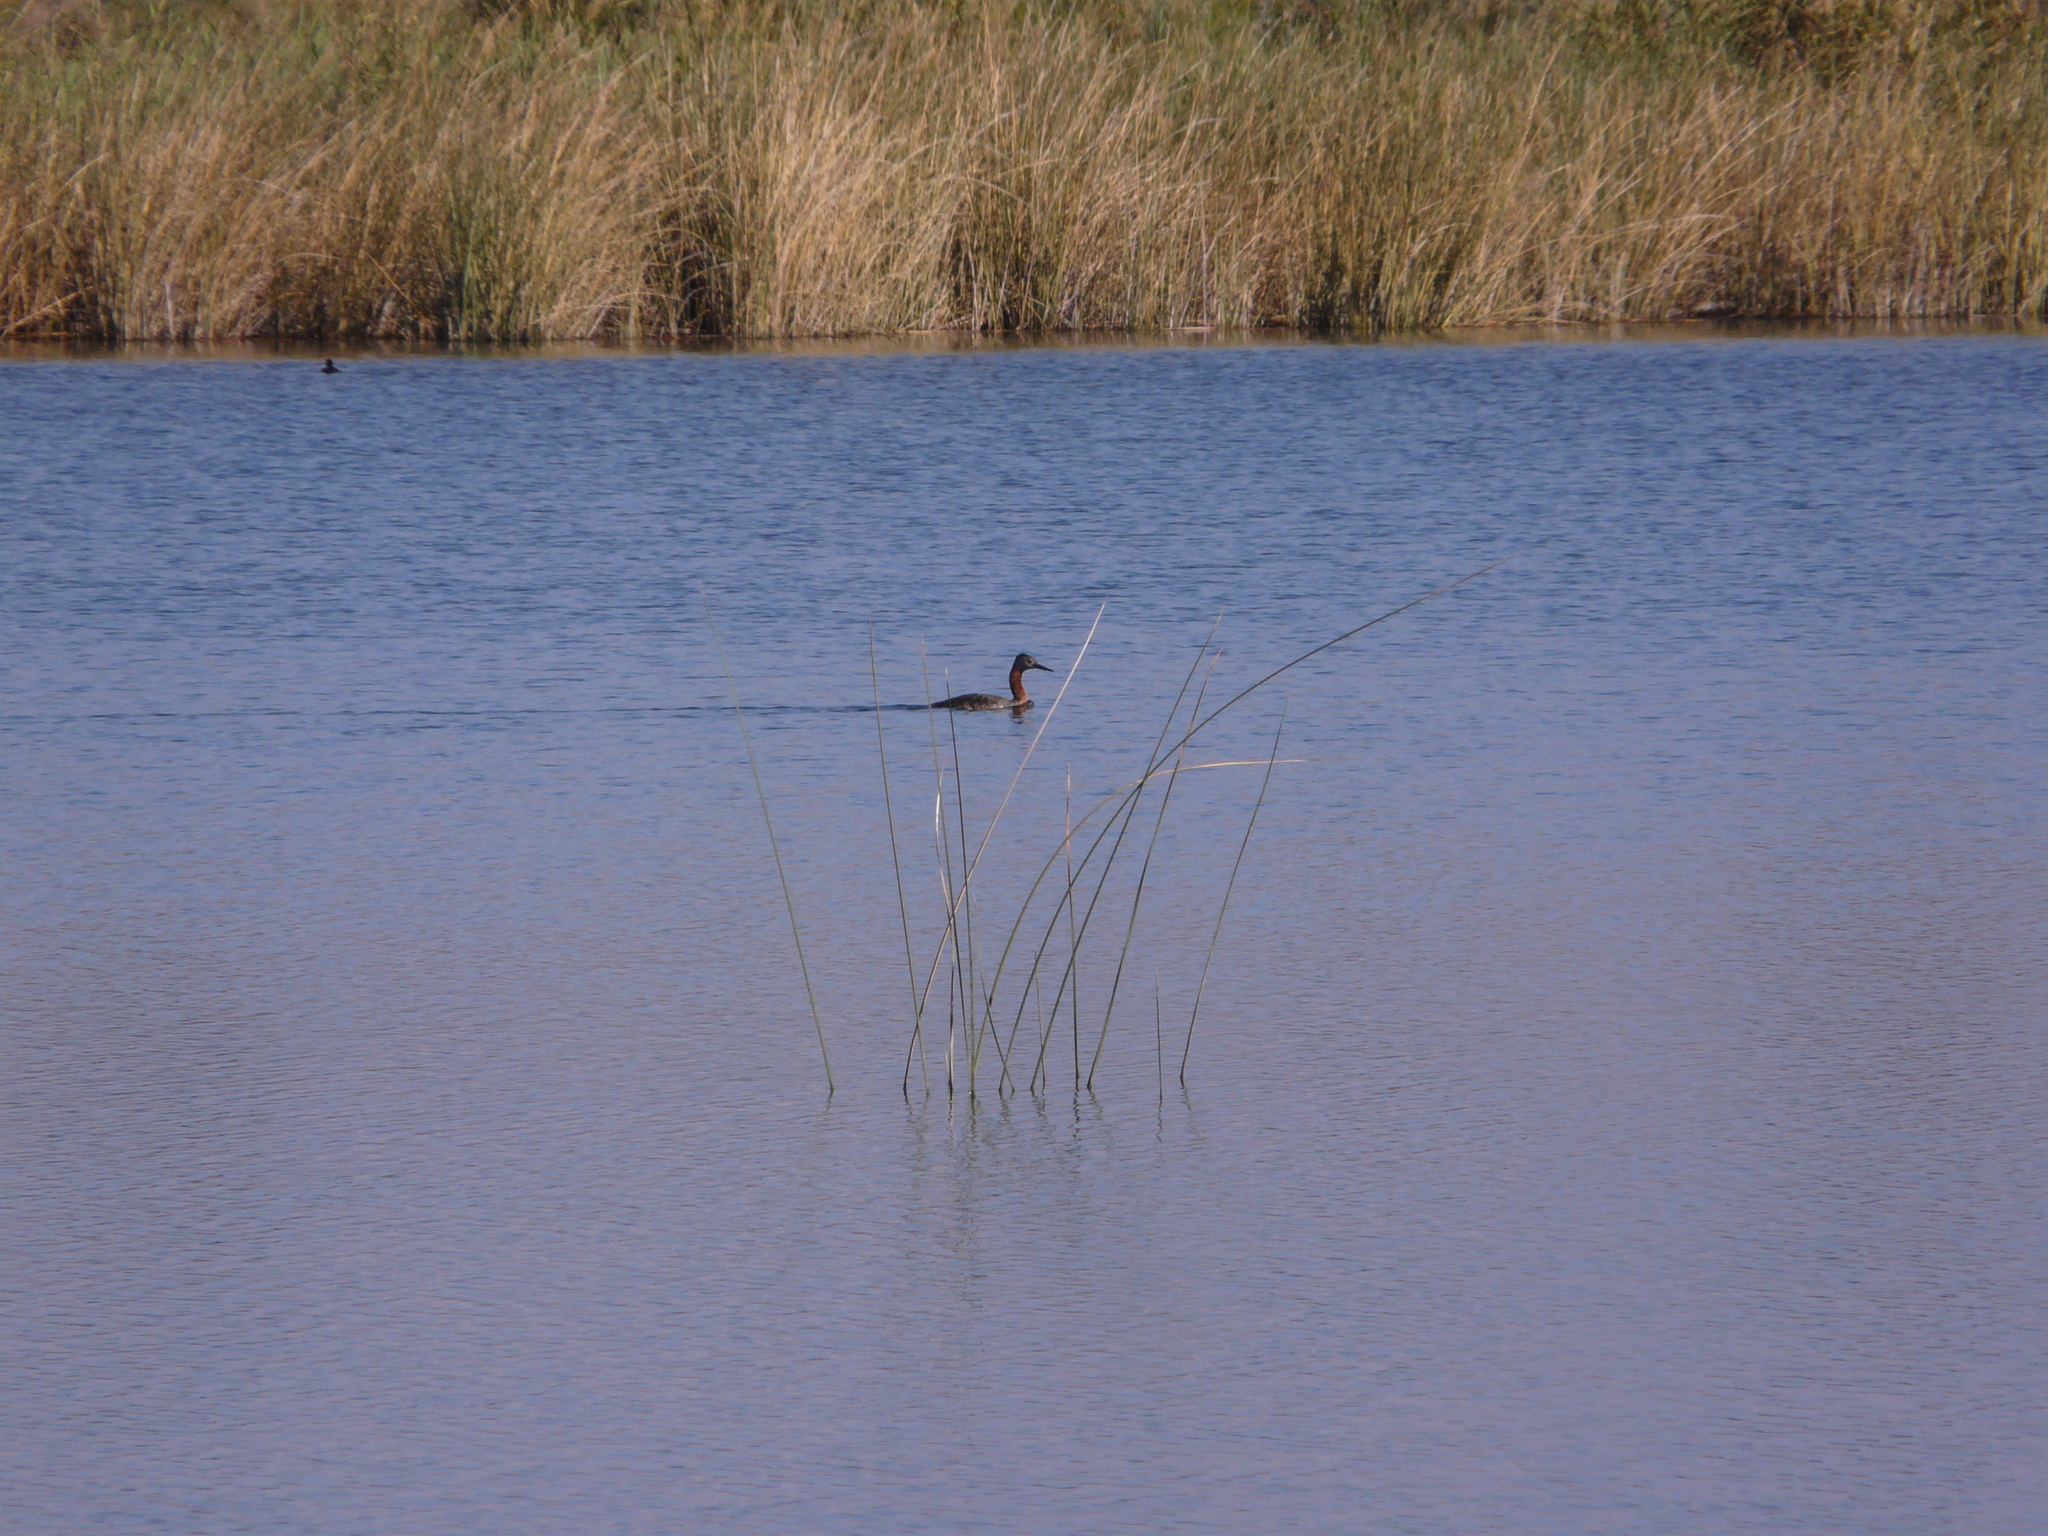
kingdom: Animalia
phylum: Chordata
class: Aves
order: Podicipediformes
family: Podicipedidae
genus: Podiceps
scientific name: Podiceps major
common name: Great grebe
